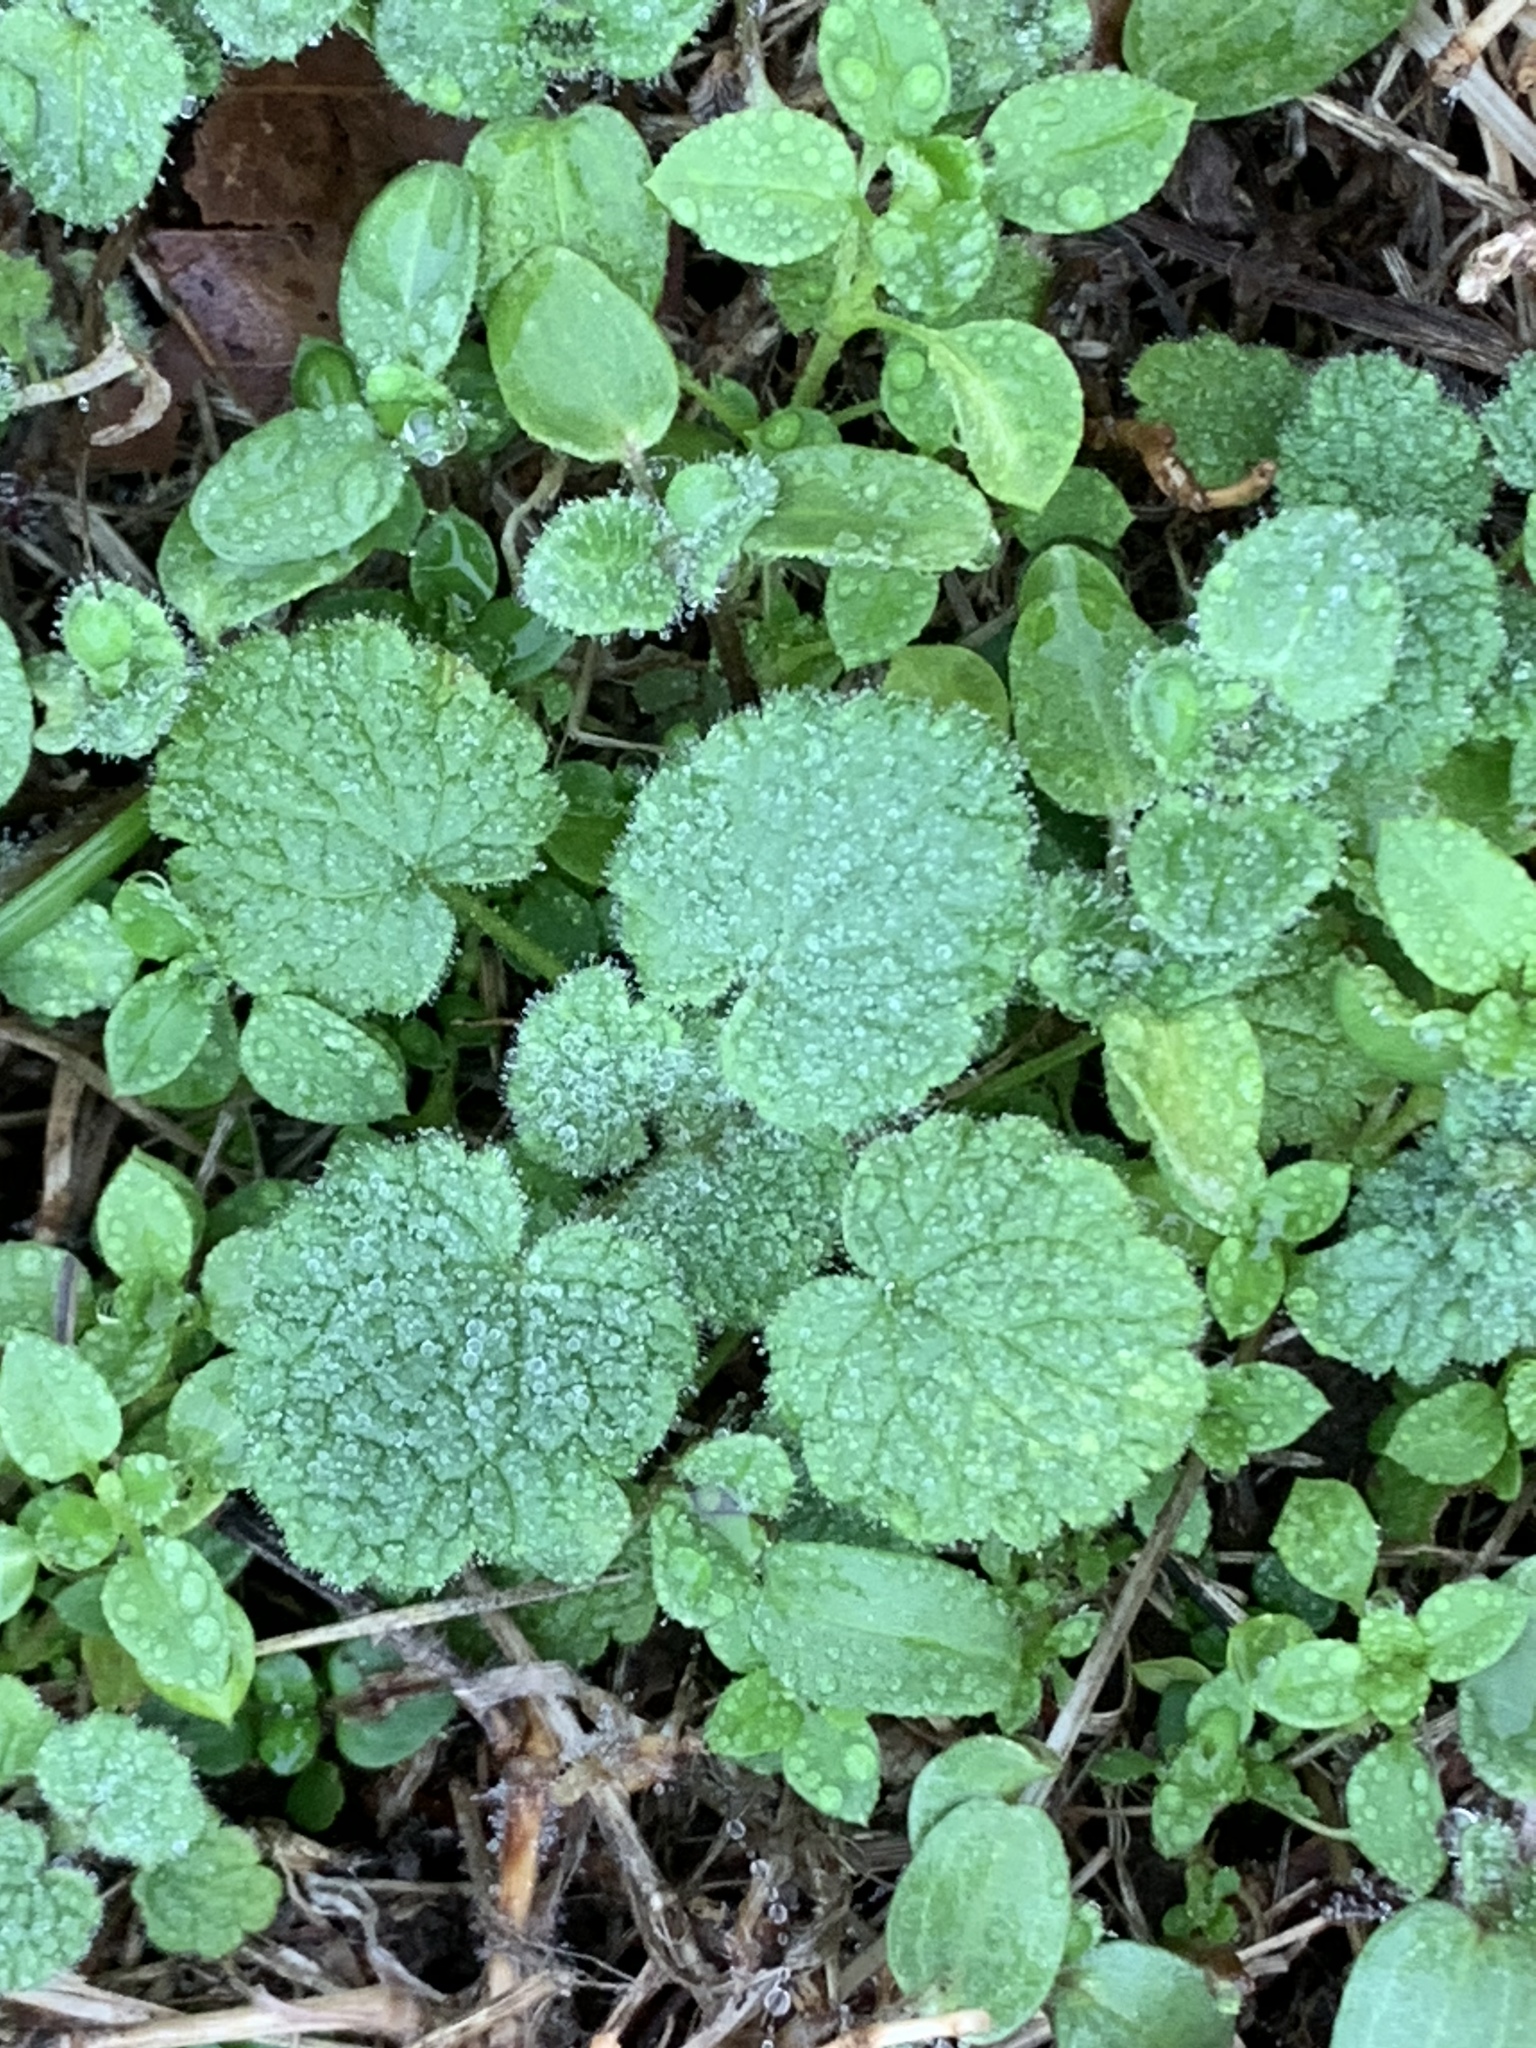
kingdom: Plantae
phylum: Tracheophyta
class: Magnoliopsida
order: Lamiales
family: Lamiaceae
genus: Lamium
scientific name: Lamium purpureum
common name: Red dead-nettle
